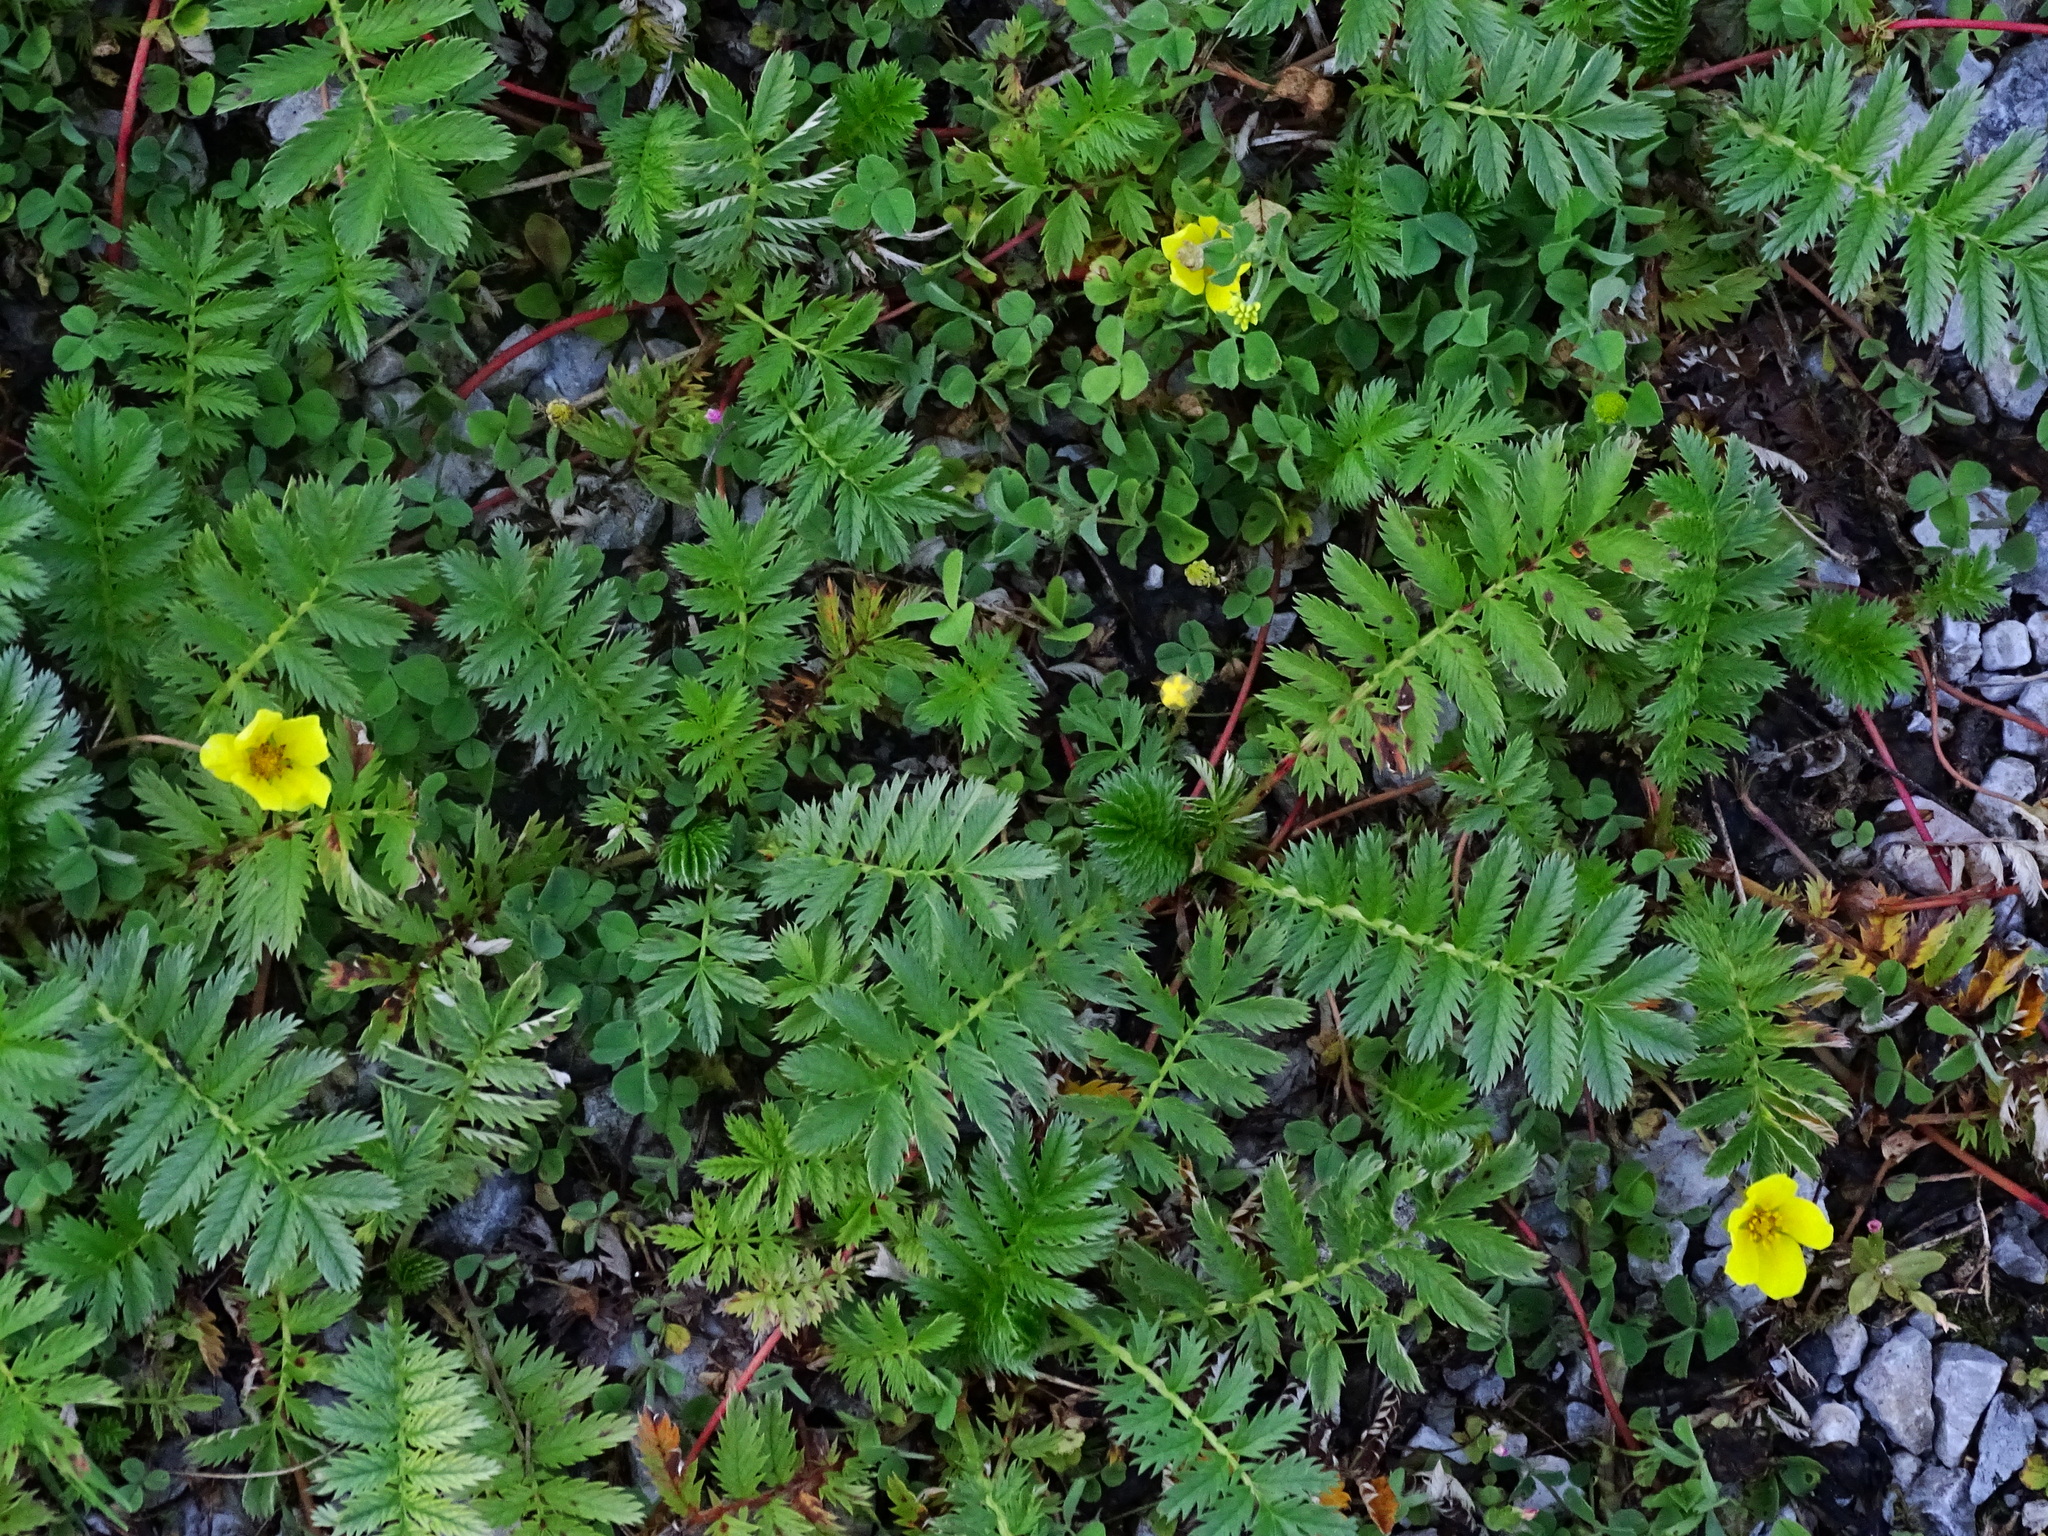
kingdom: Plantae
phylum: Tracheophyta
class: Magnoliopsida
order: Rosales
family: Rosaceae
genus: Argentina
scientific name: Argentina anserina
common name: Common silverweed
